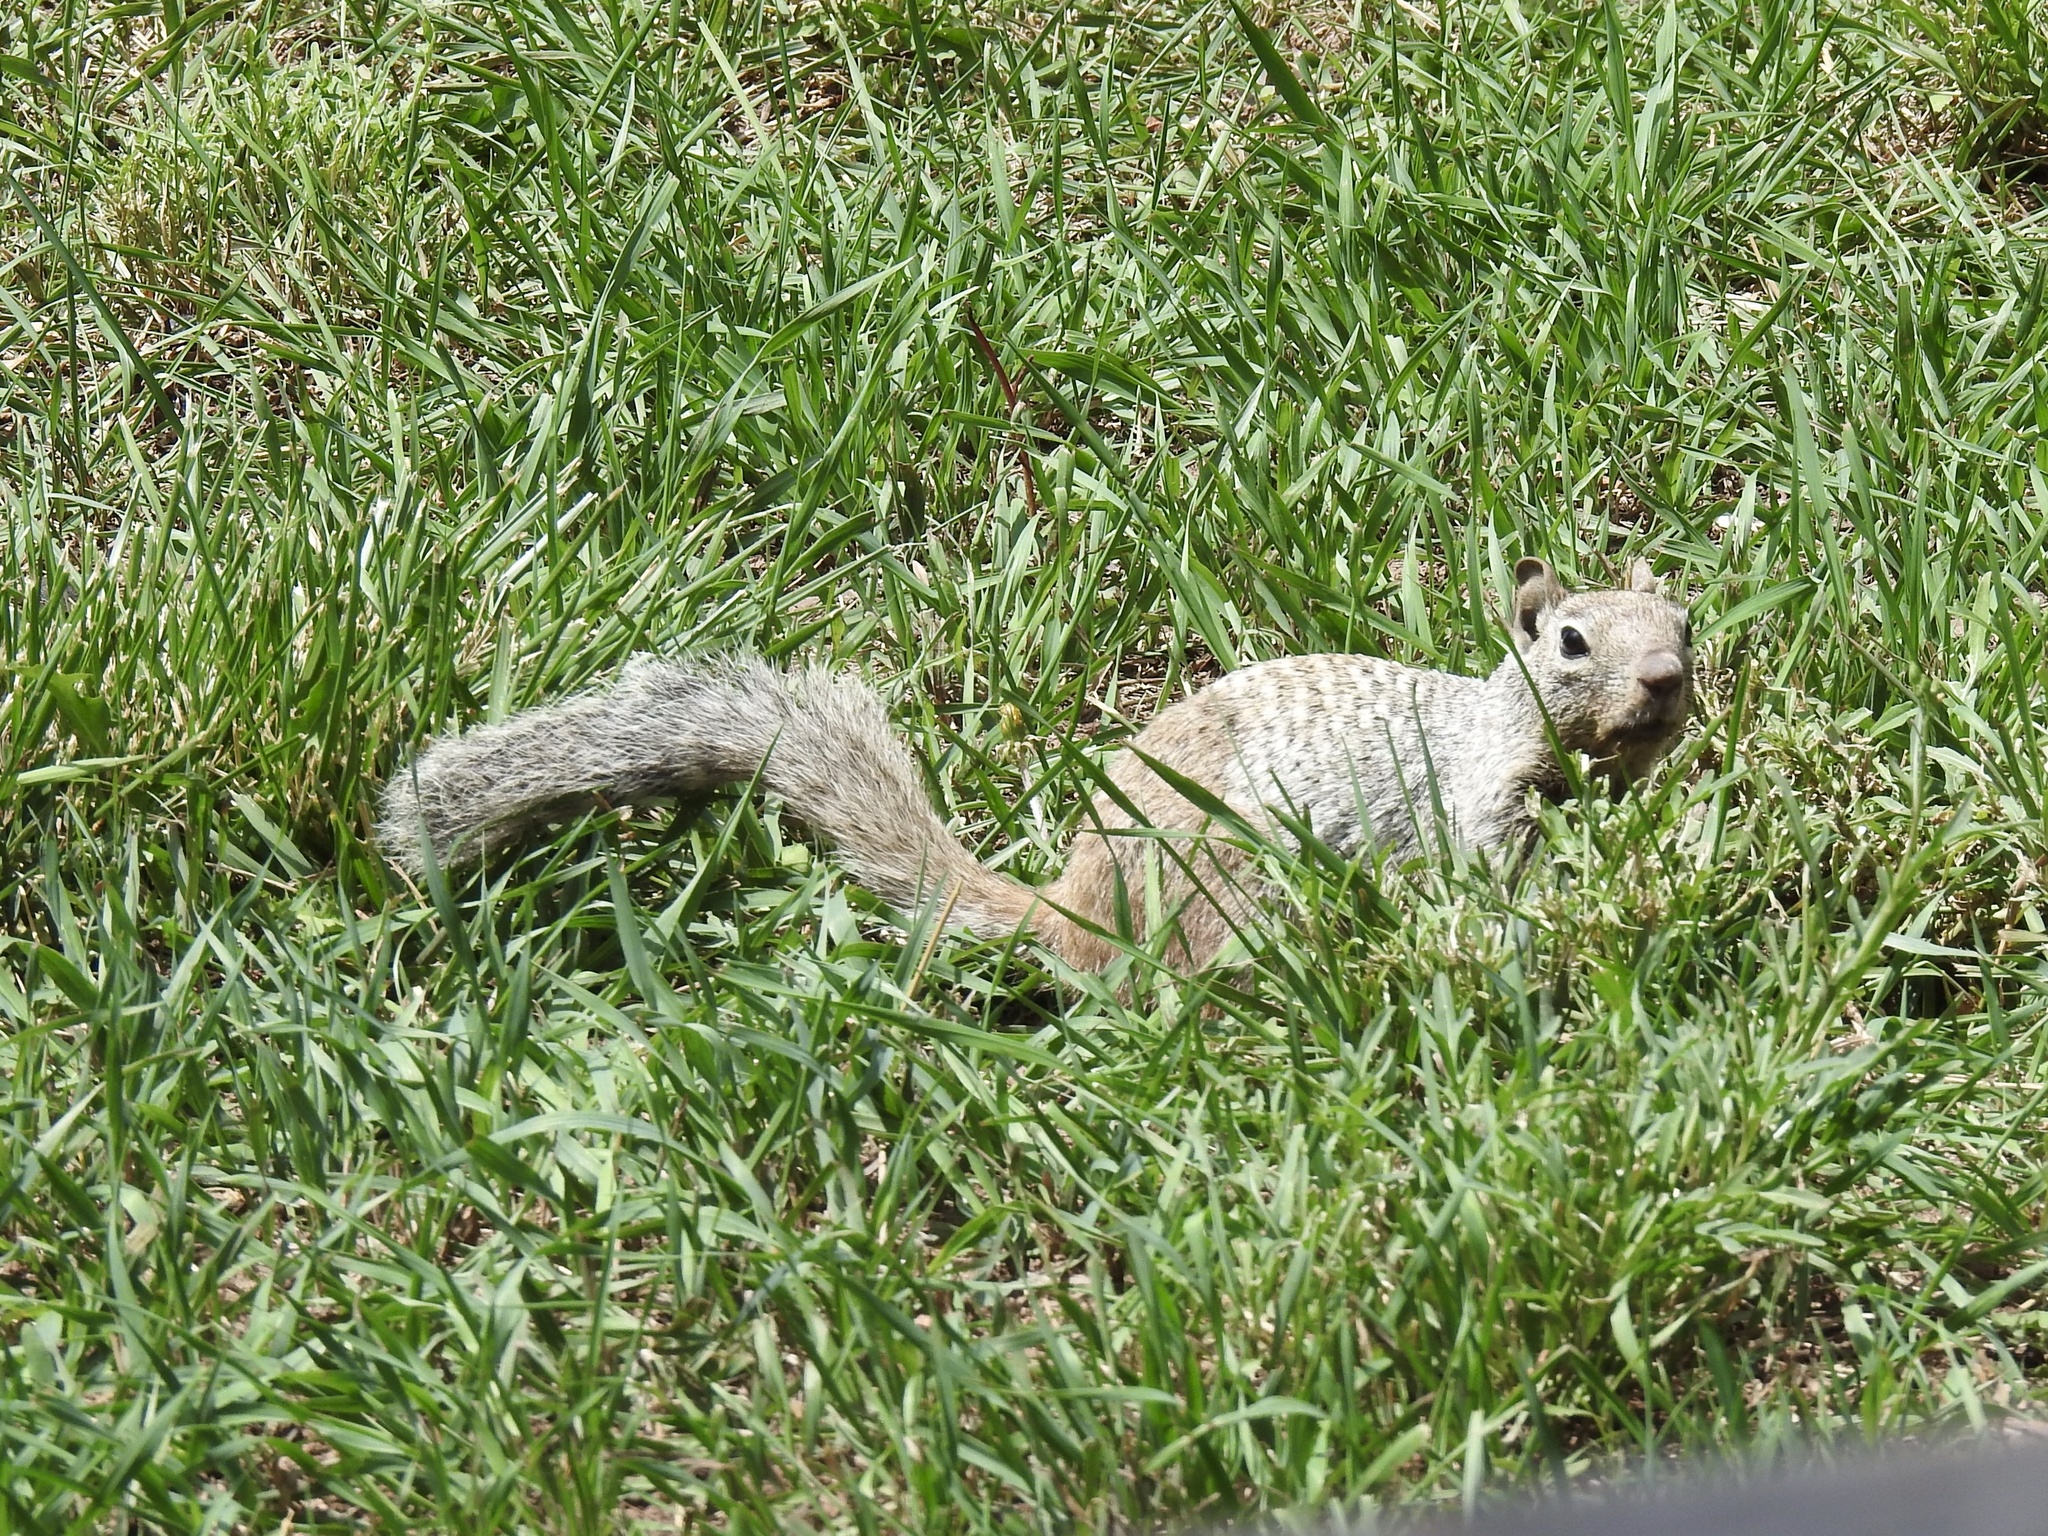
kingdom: Animalia
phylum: Chordata
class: Mammalia
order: Rodentia
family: Sciuridae
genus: Otospermophilus
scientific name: Otospermophilus variegatus
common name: Rock squirrel
